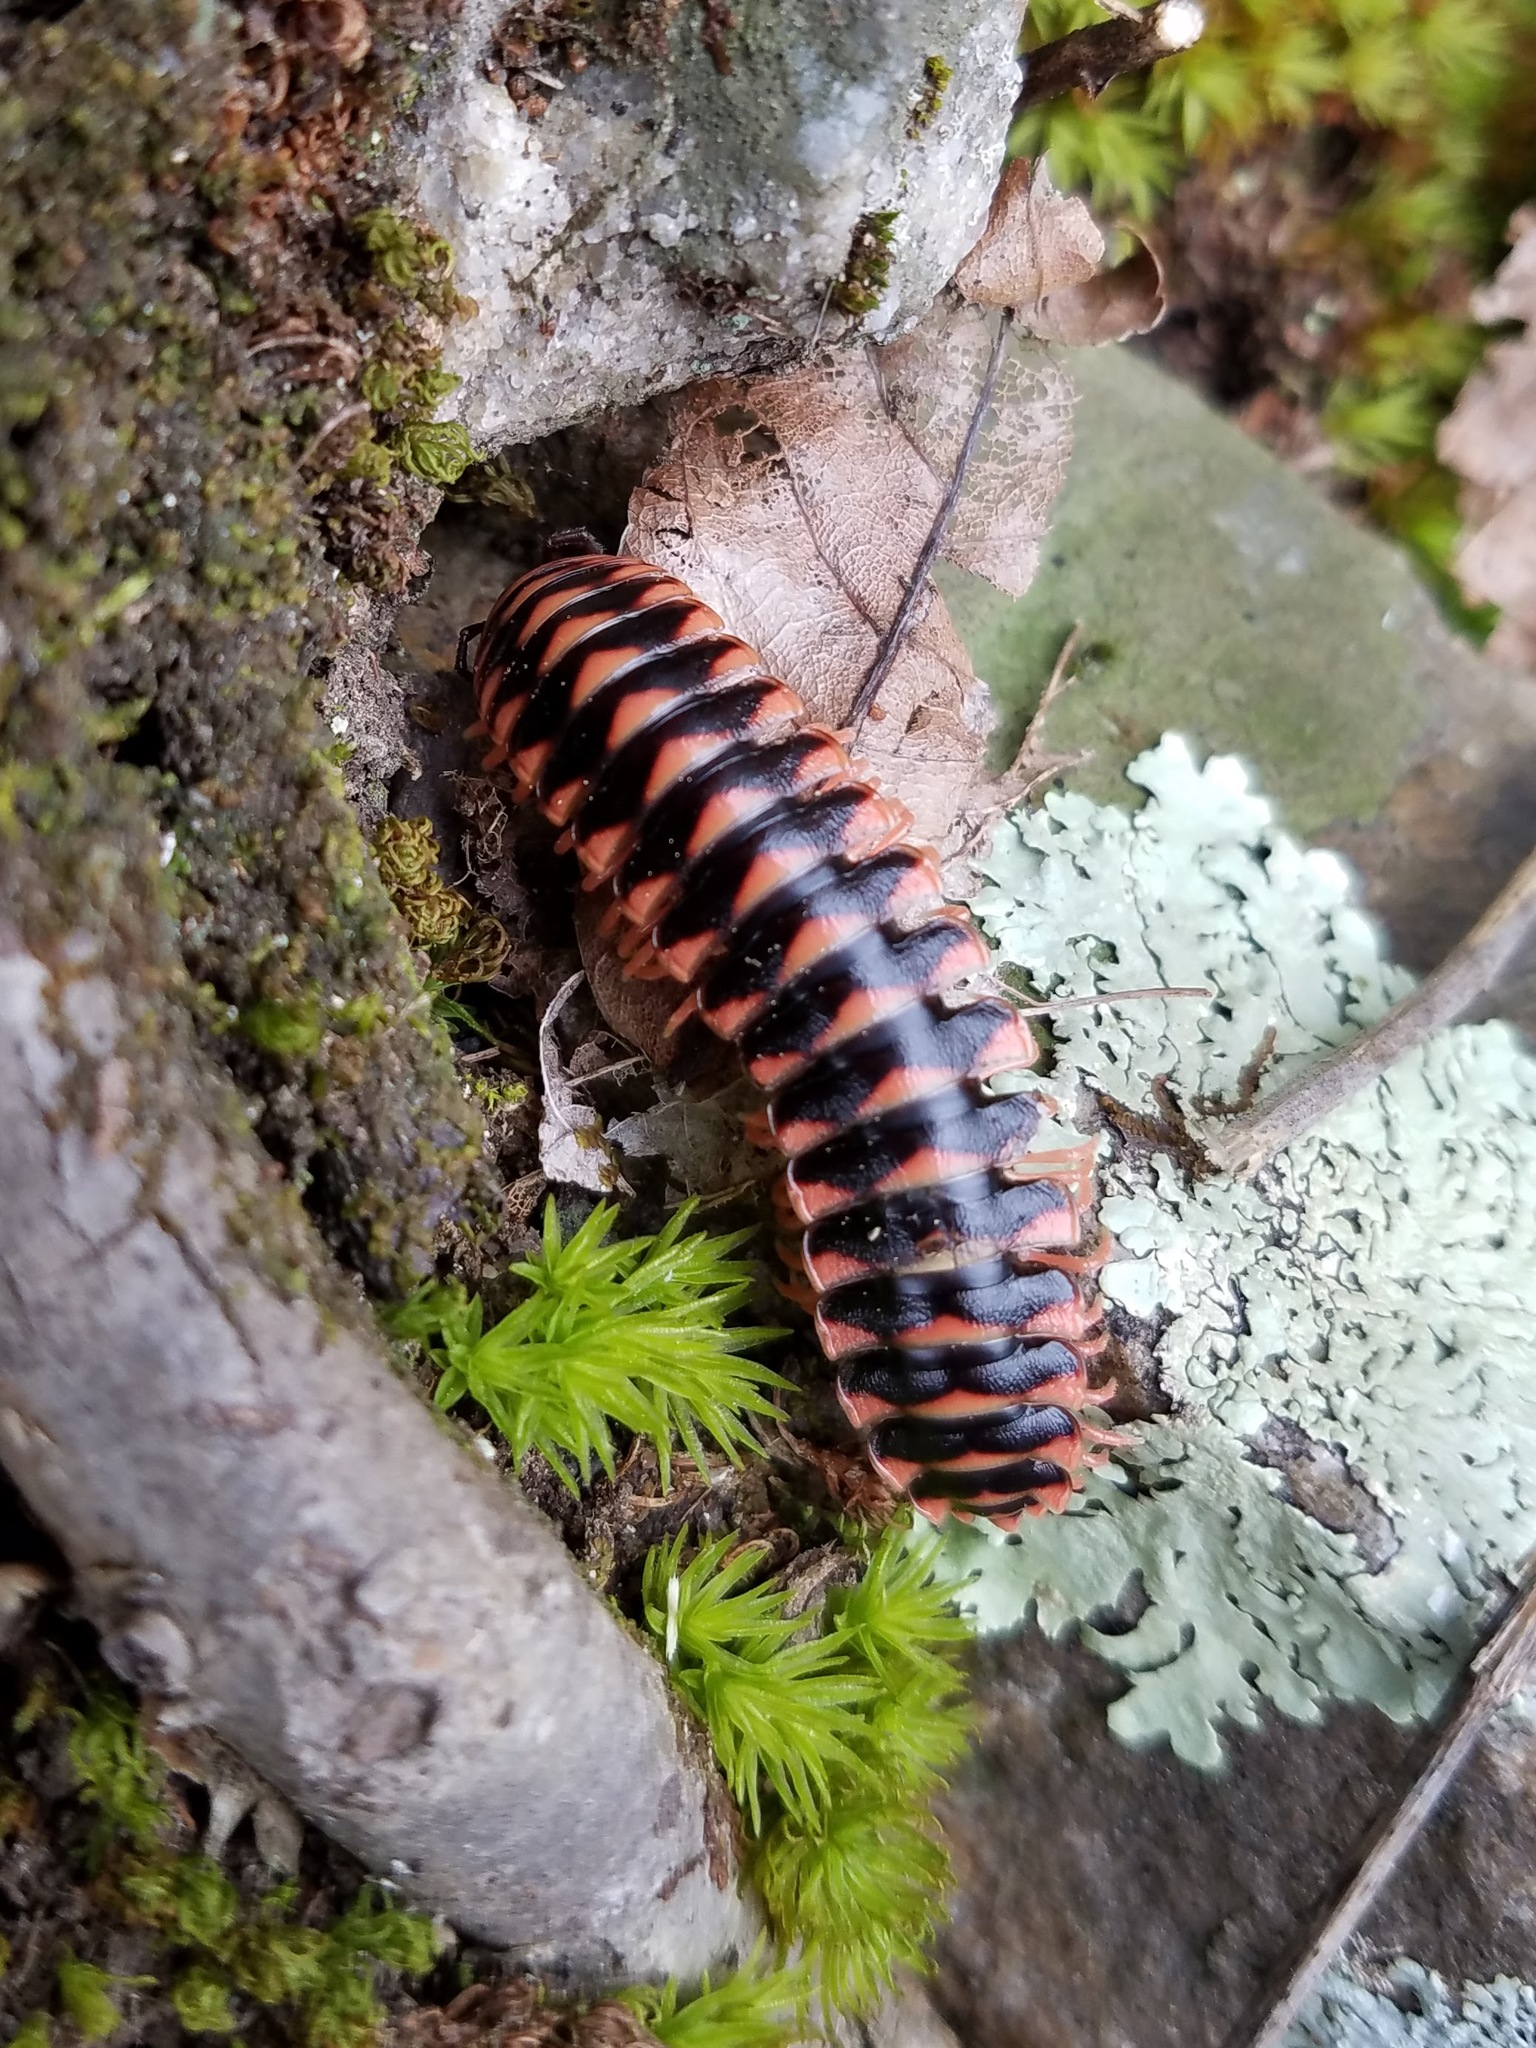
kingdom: Animalia
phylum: Arthropoda
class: Diplopoda
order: Polydesmida
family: Xystodesmidae
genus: Cherokia
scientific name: Cherokia georgiana
